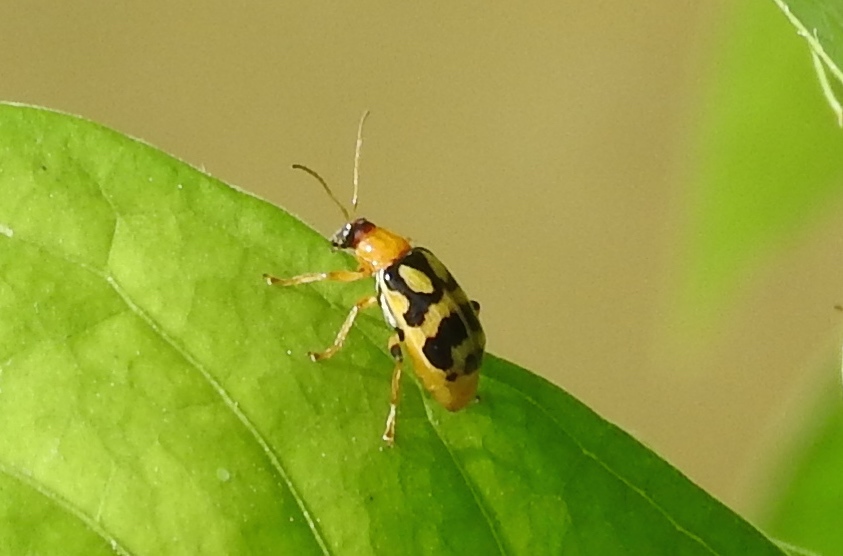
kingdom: Animalia
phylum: Arthropoda
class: Insecta
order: Coleoptera
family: Chrysomelidae
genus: Cerotoma
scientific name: Cerotoma
